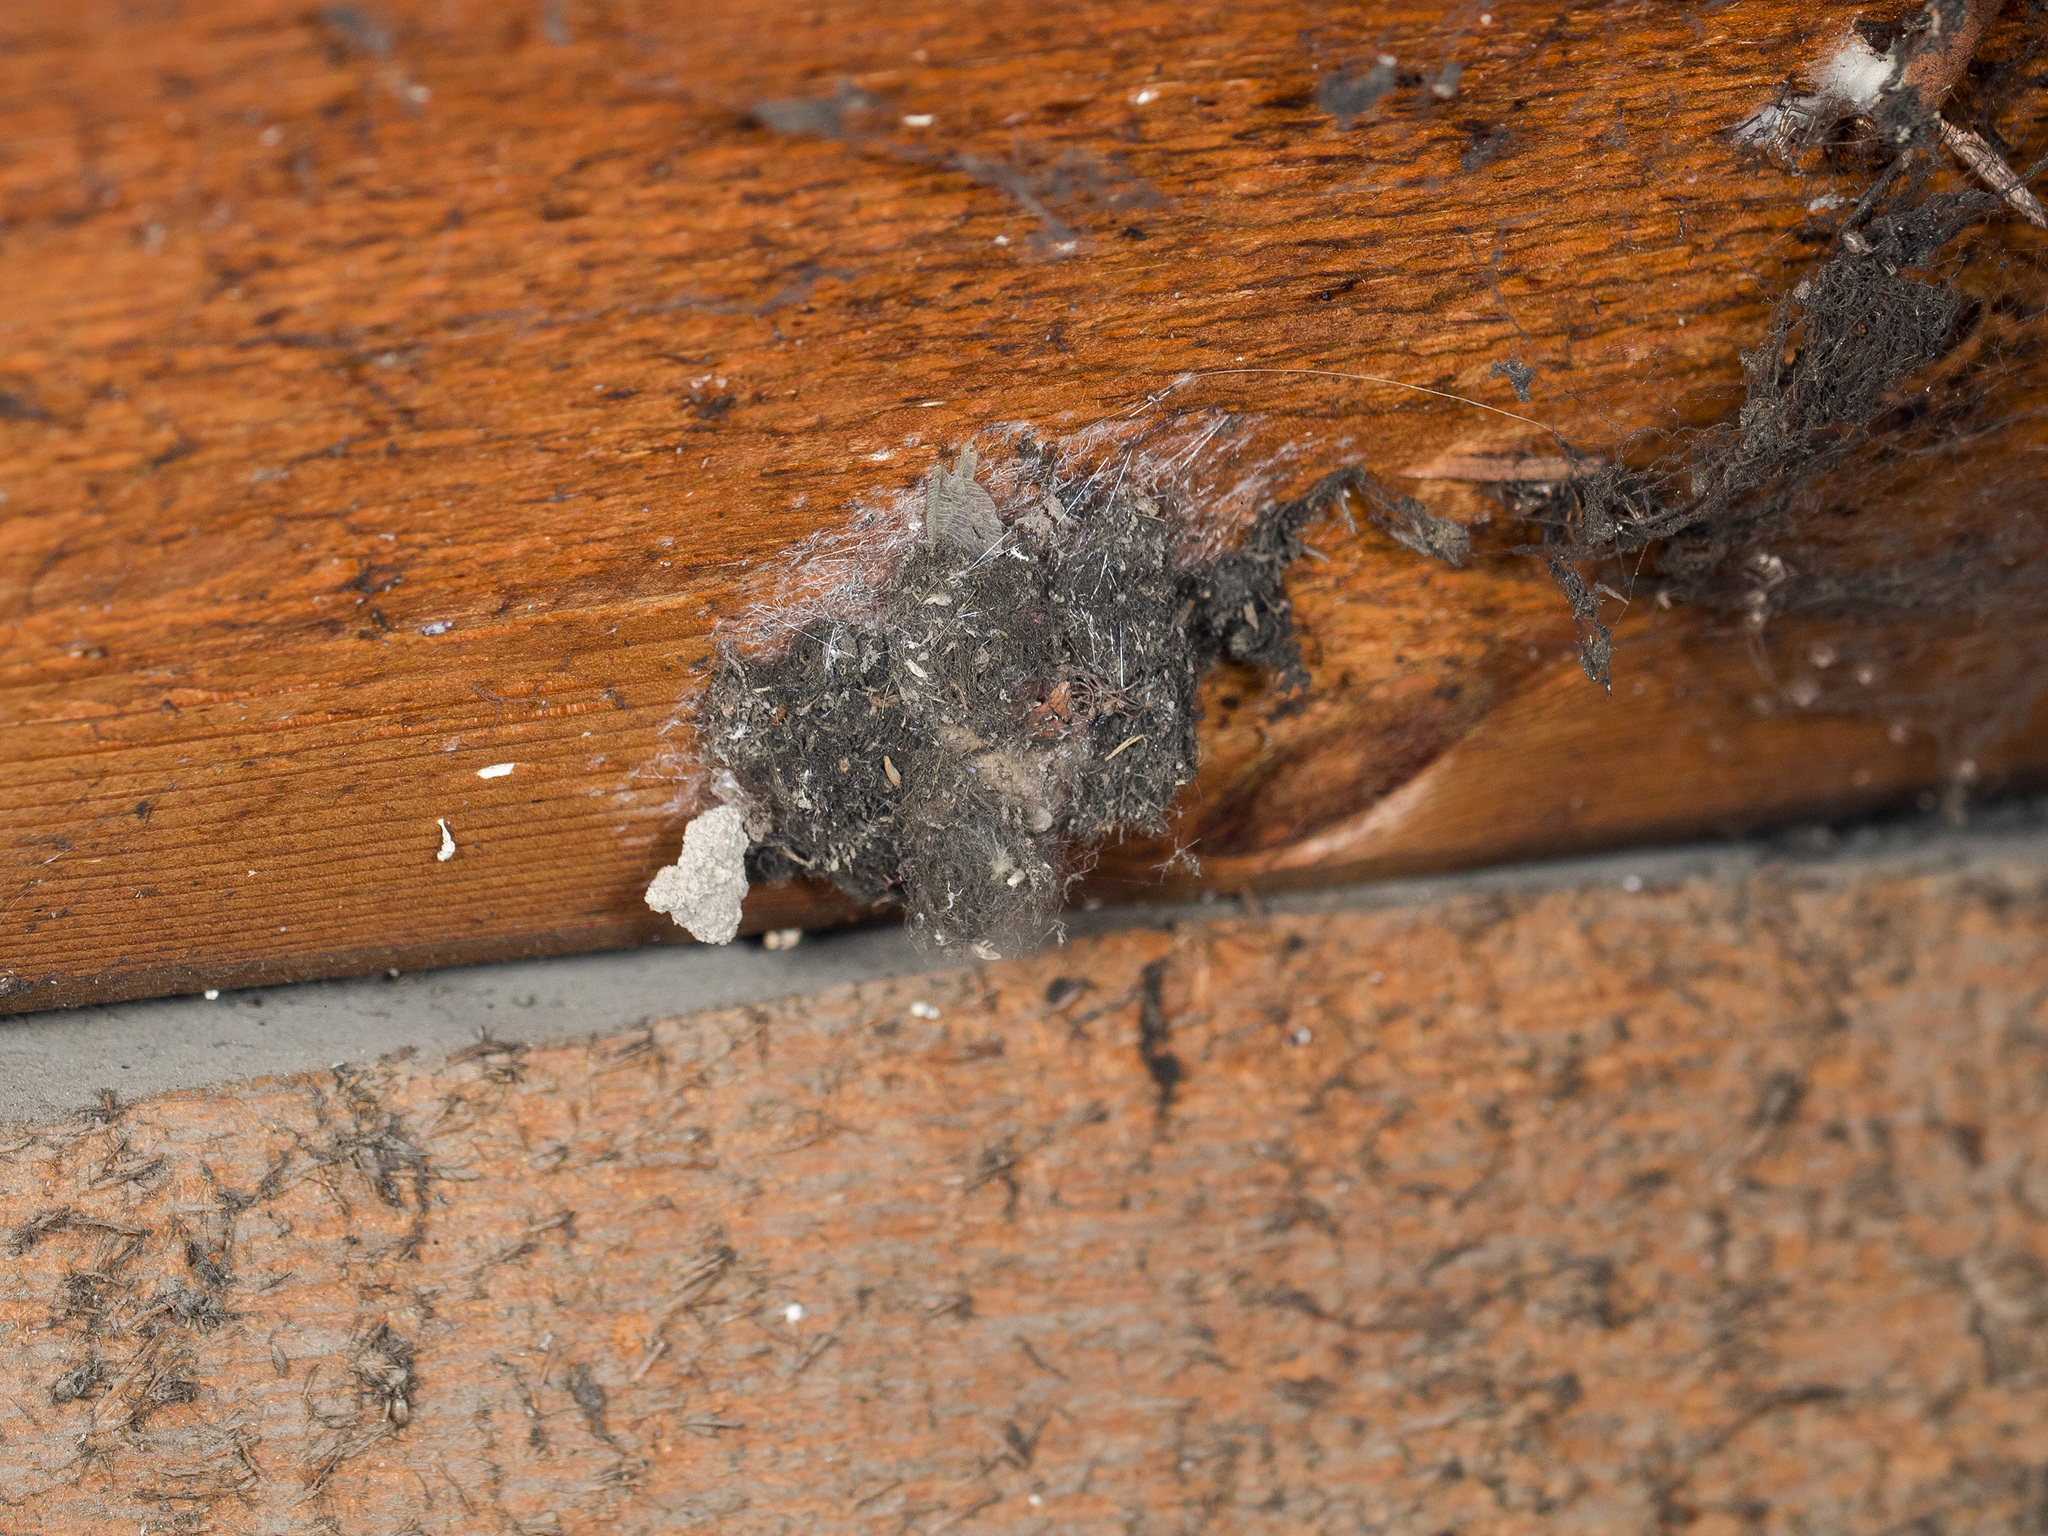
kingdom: Animalia
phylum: Arthropoda
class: Arachnida
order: Araneae
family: Araneidae
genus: Araneus
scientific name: Araneus tartaricus
